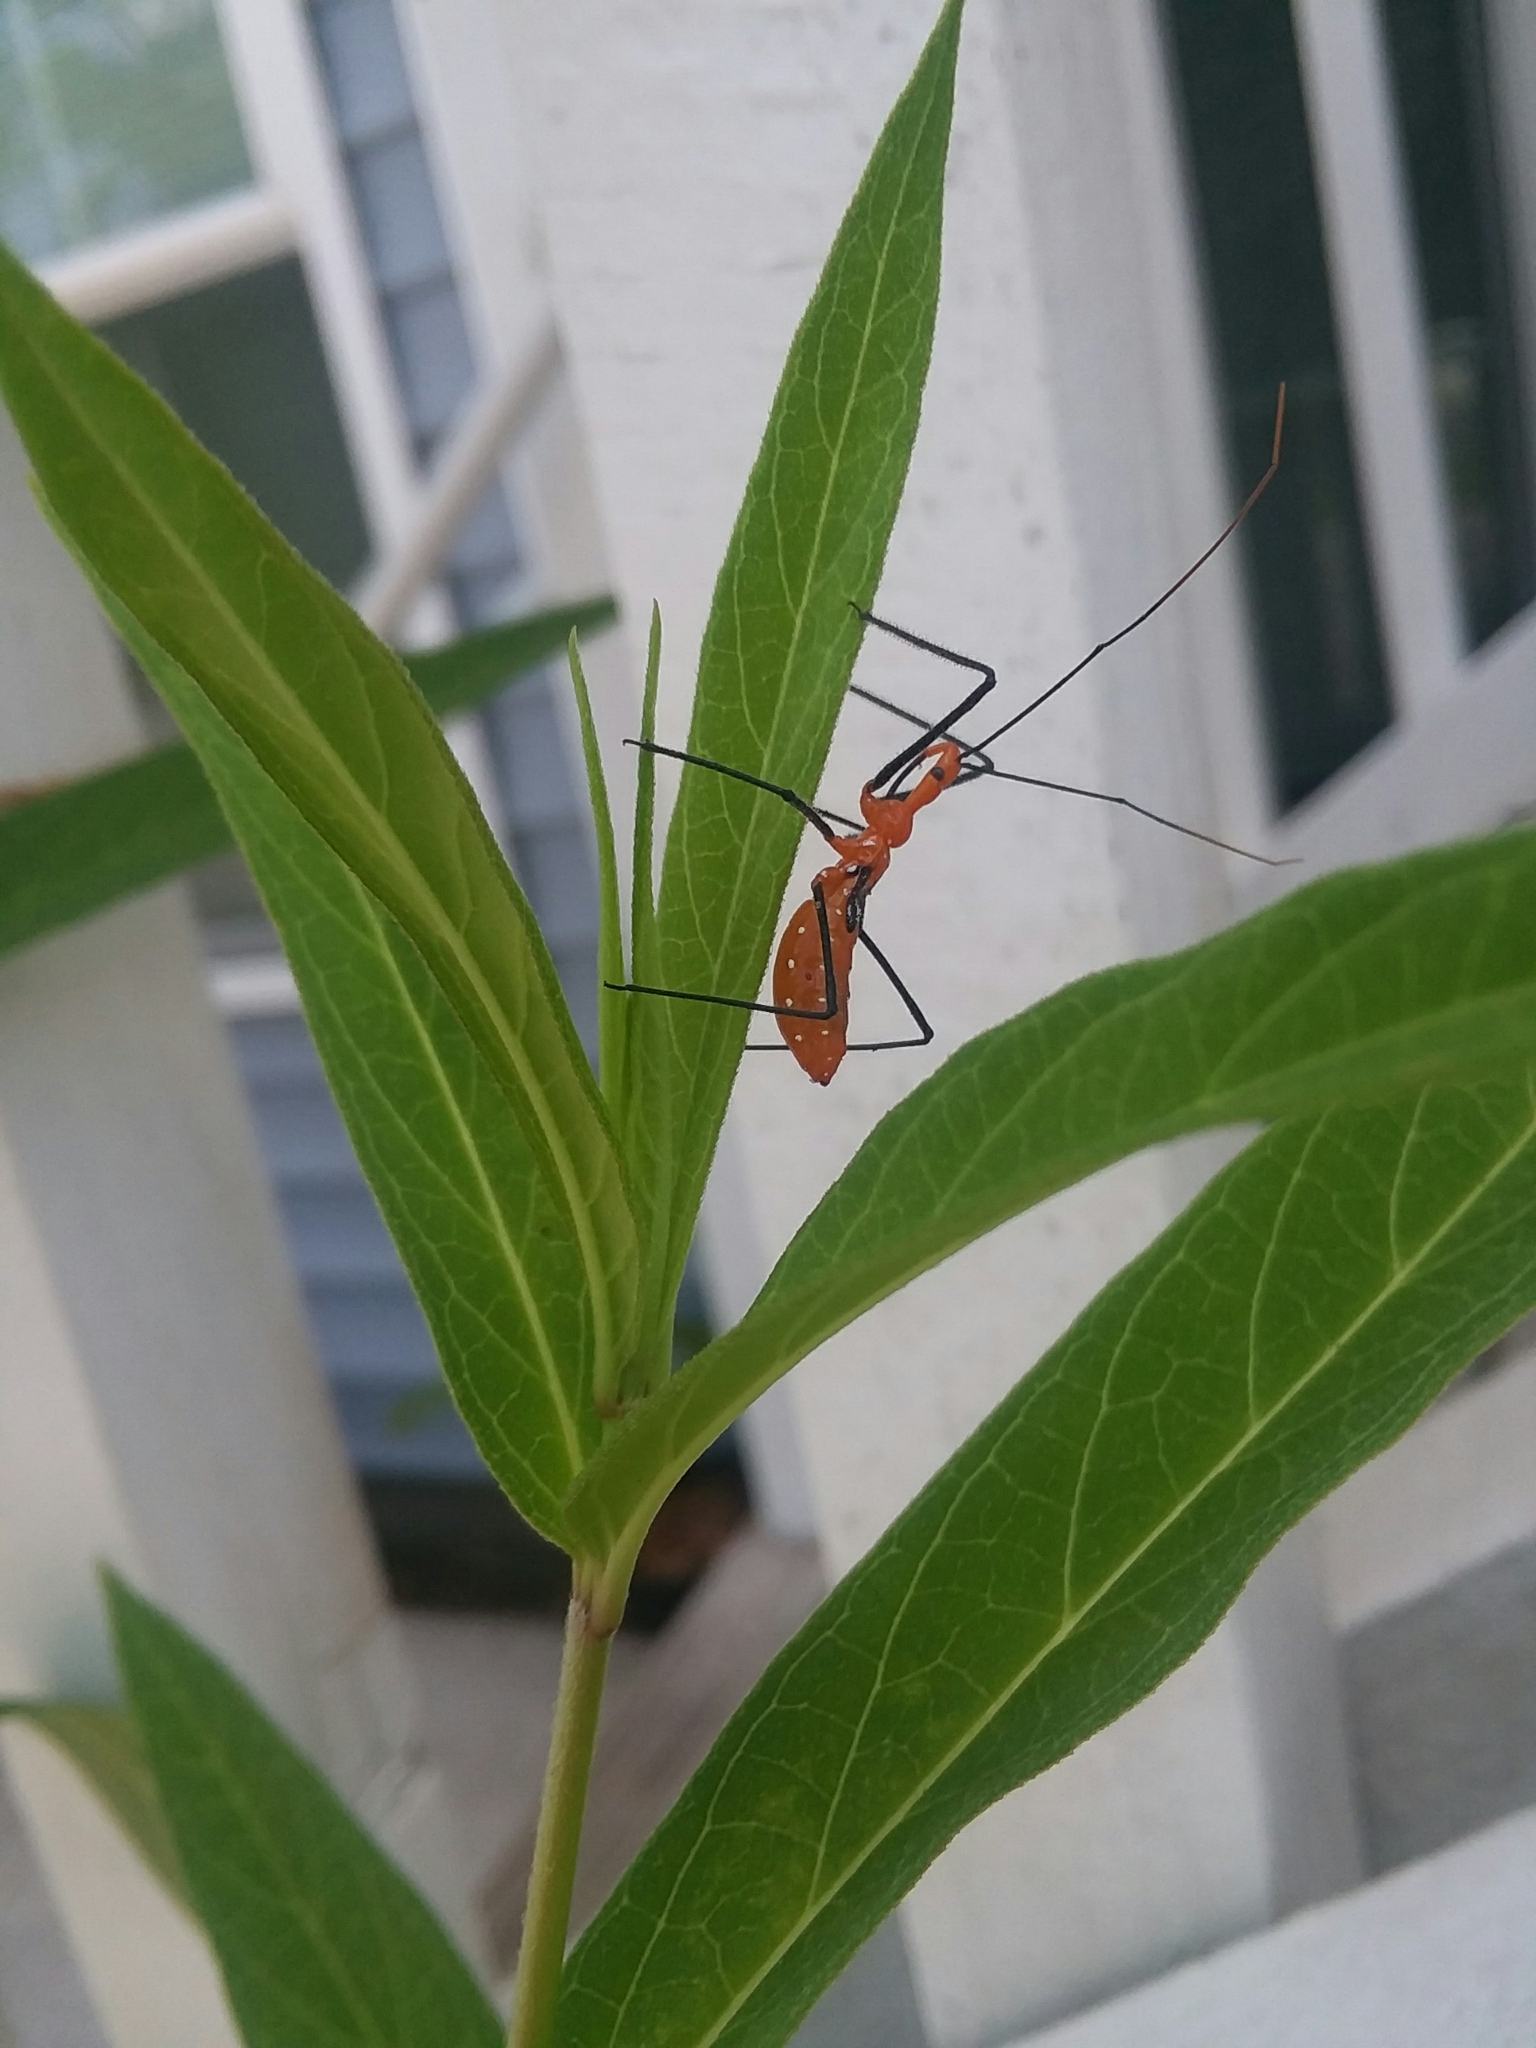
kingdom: Animalia
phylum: Arthropoda
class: Insecta
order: Hemiptera
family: Reduviidae
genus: Zelus
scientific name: Zelus longipes
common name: Milkweed assassin bug
